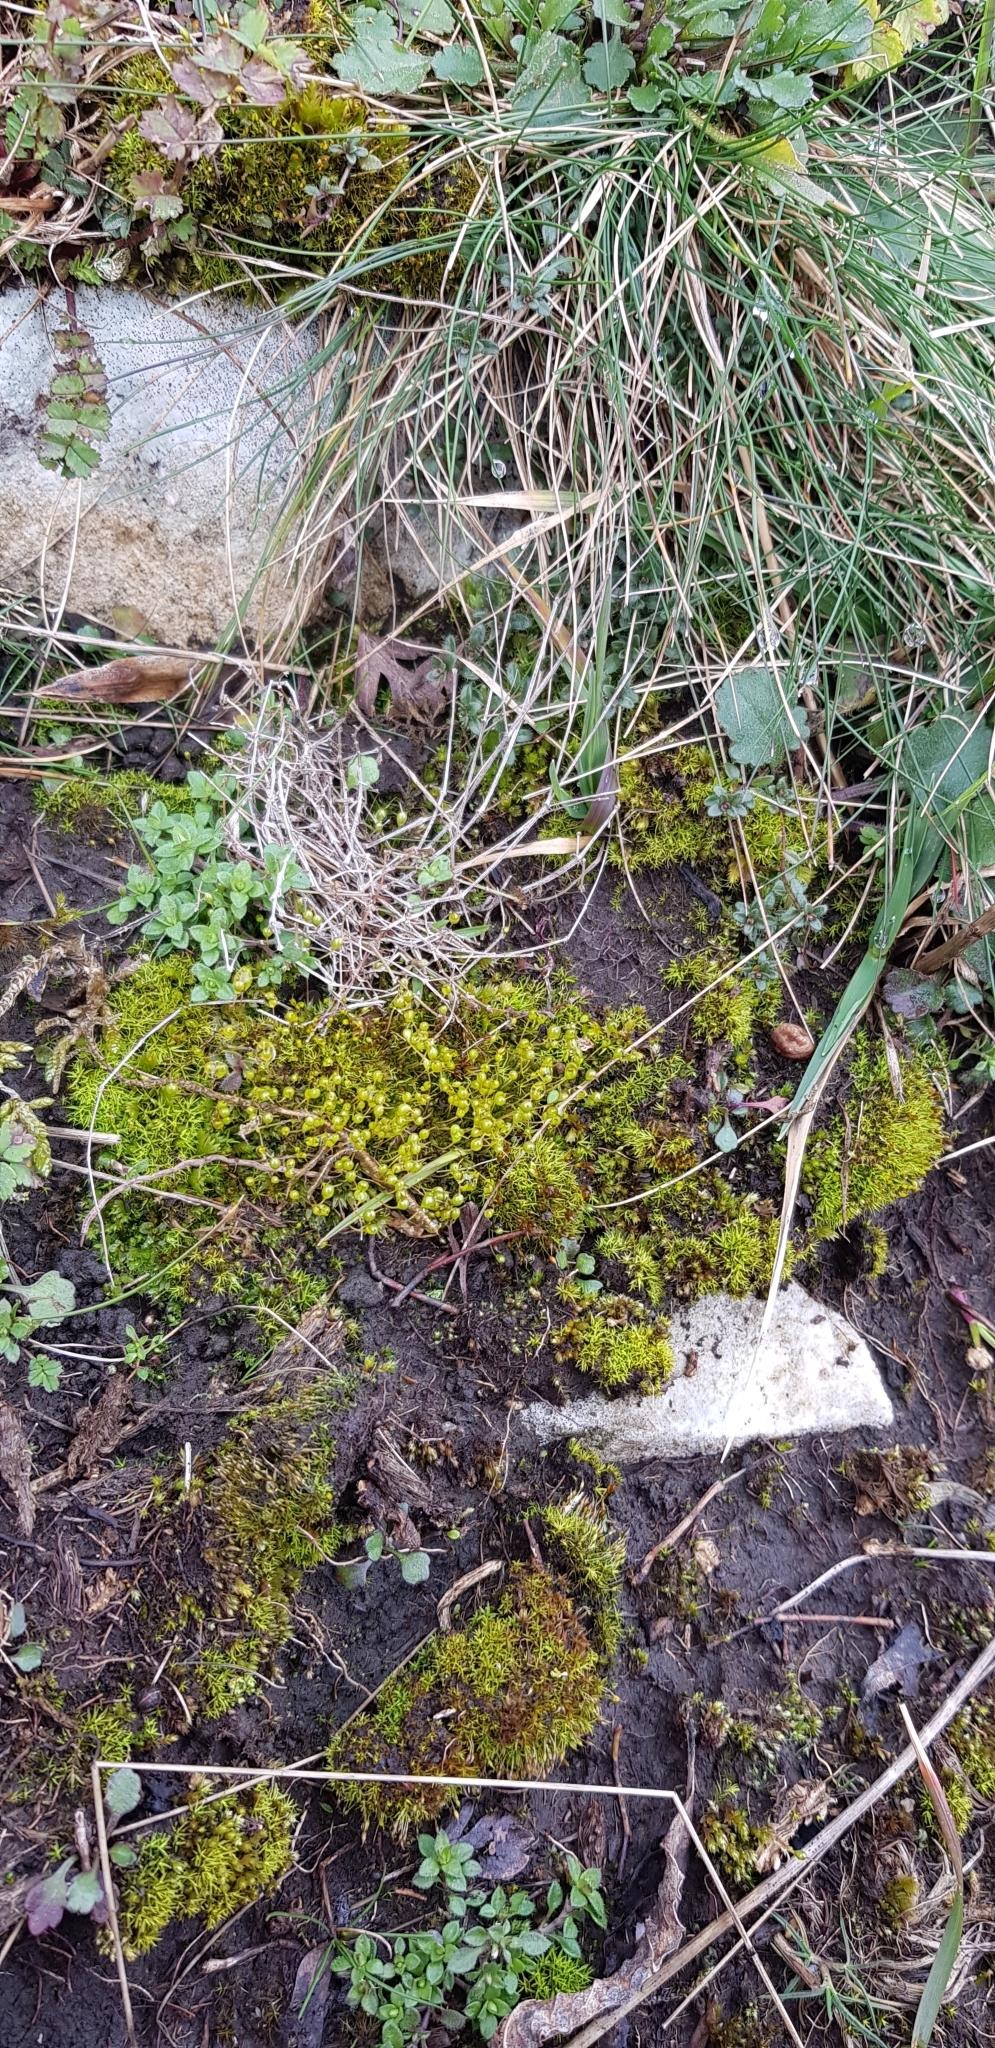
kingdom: Plantae
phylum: Bryophyta
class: Bryopsida
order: Funariales
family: Funariaceae
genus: Entosthodon
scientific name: Entosthodon fascicularis
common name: Hasselquist's hyssop
